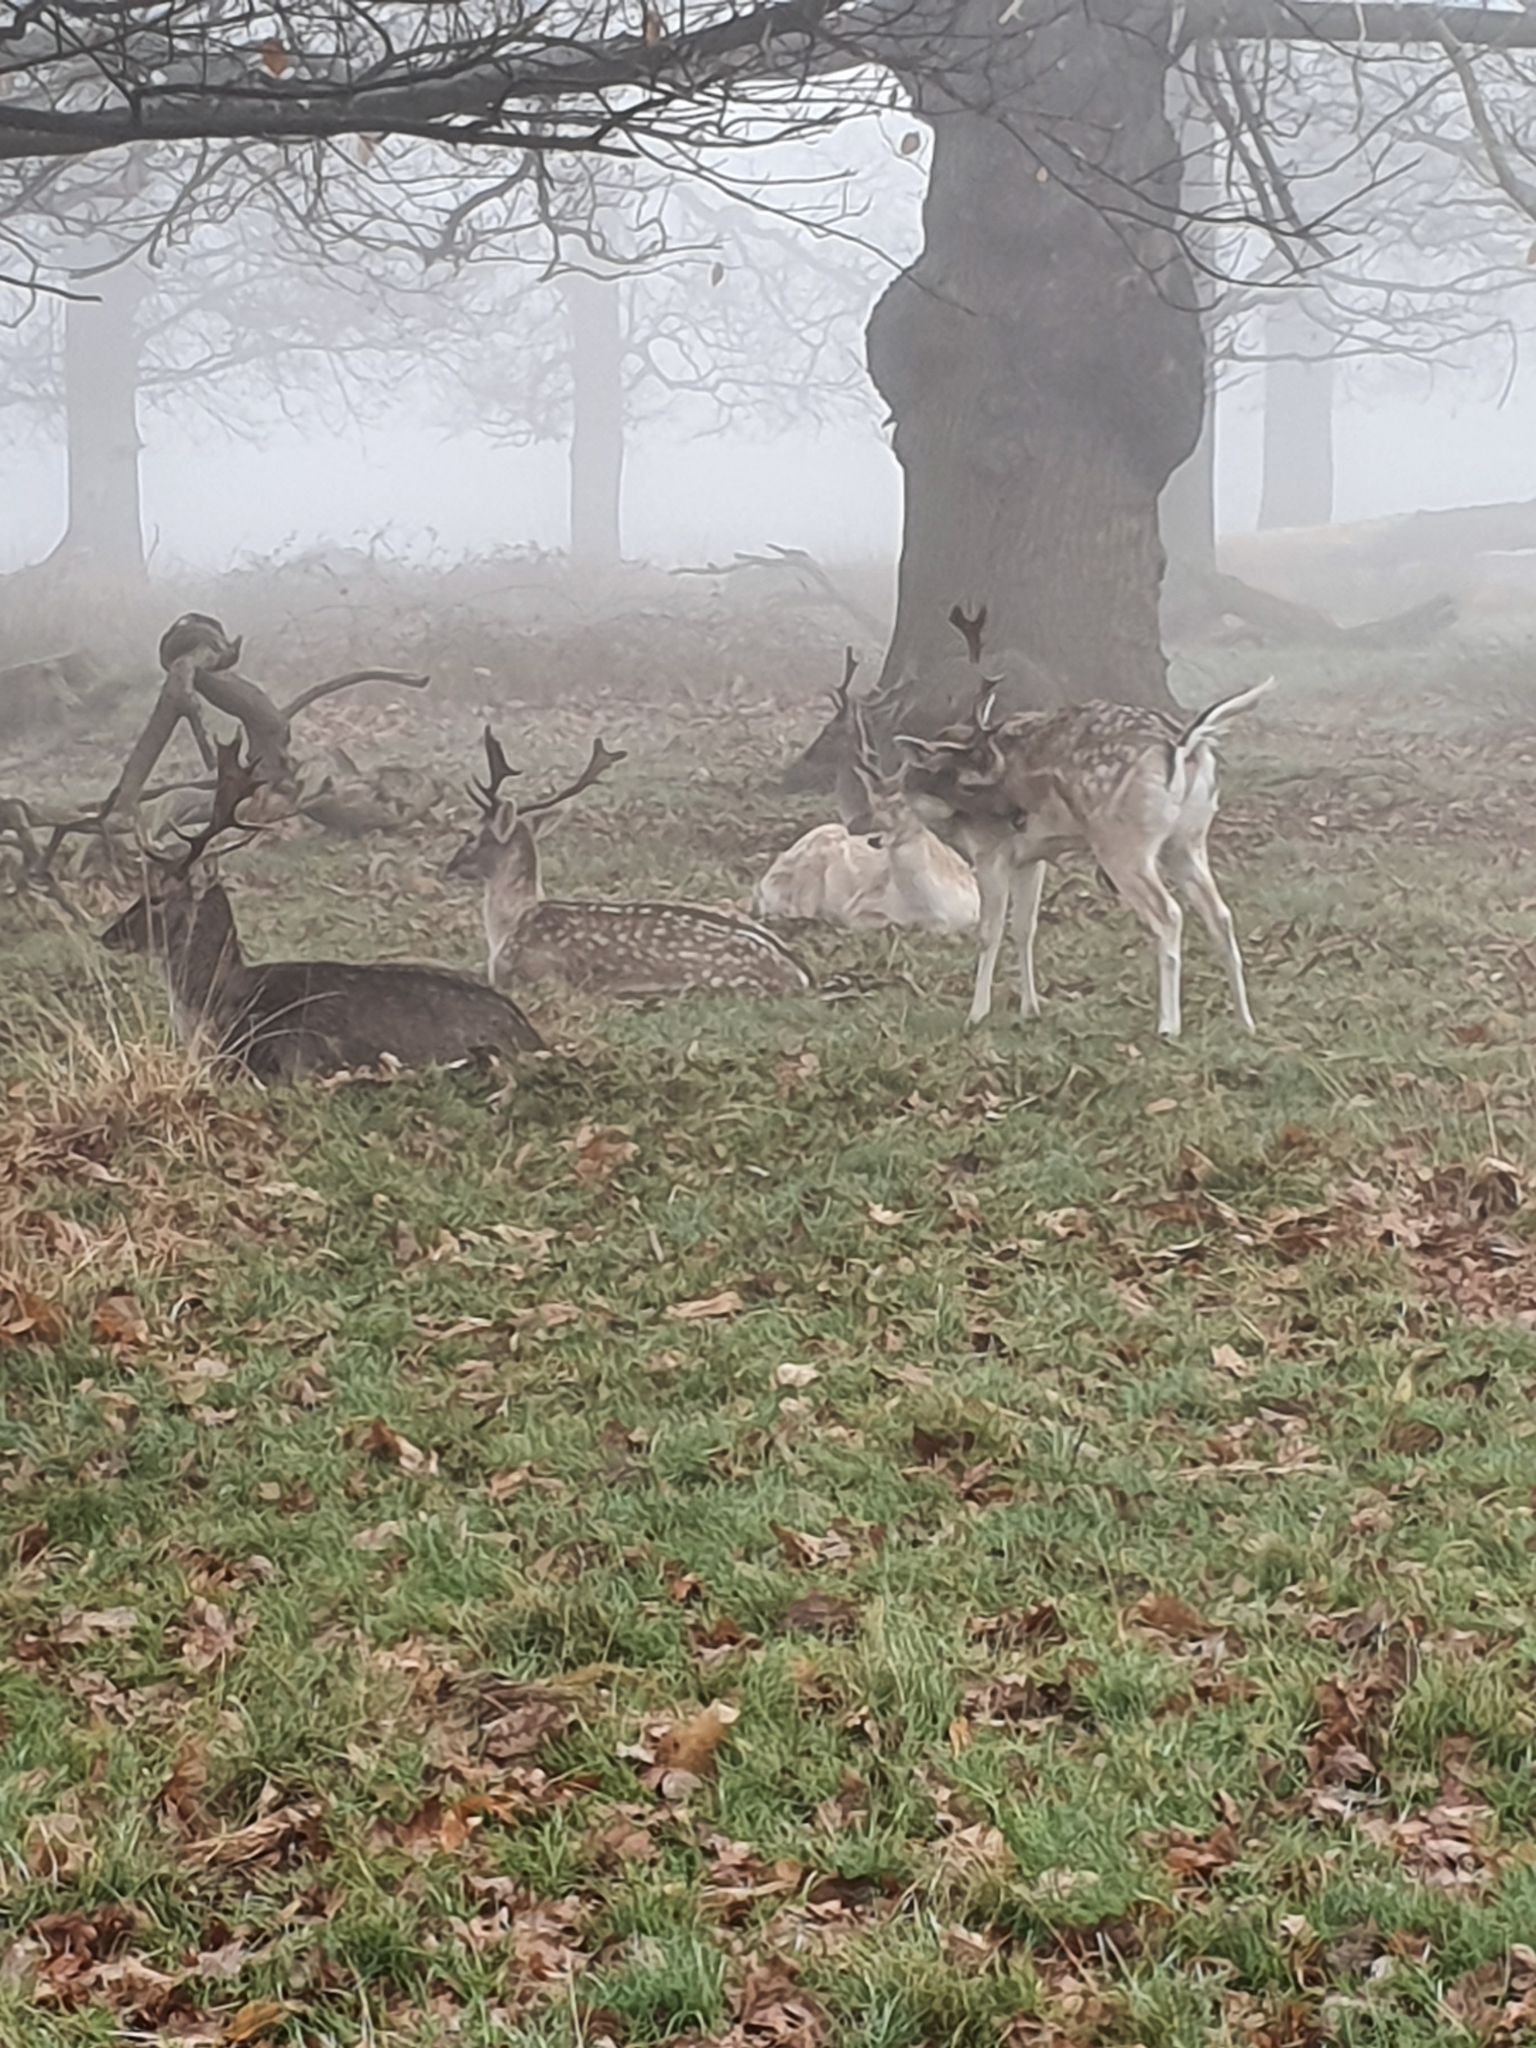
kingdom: Animalia
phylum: Chordata
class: Mammalia
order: Artiodactyla
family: Cervidae
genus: Dama
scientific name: Dama dama
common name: Fallow deer
